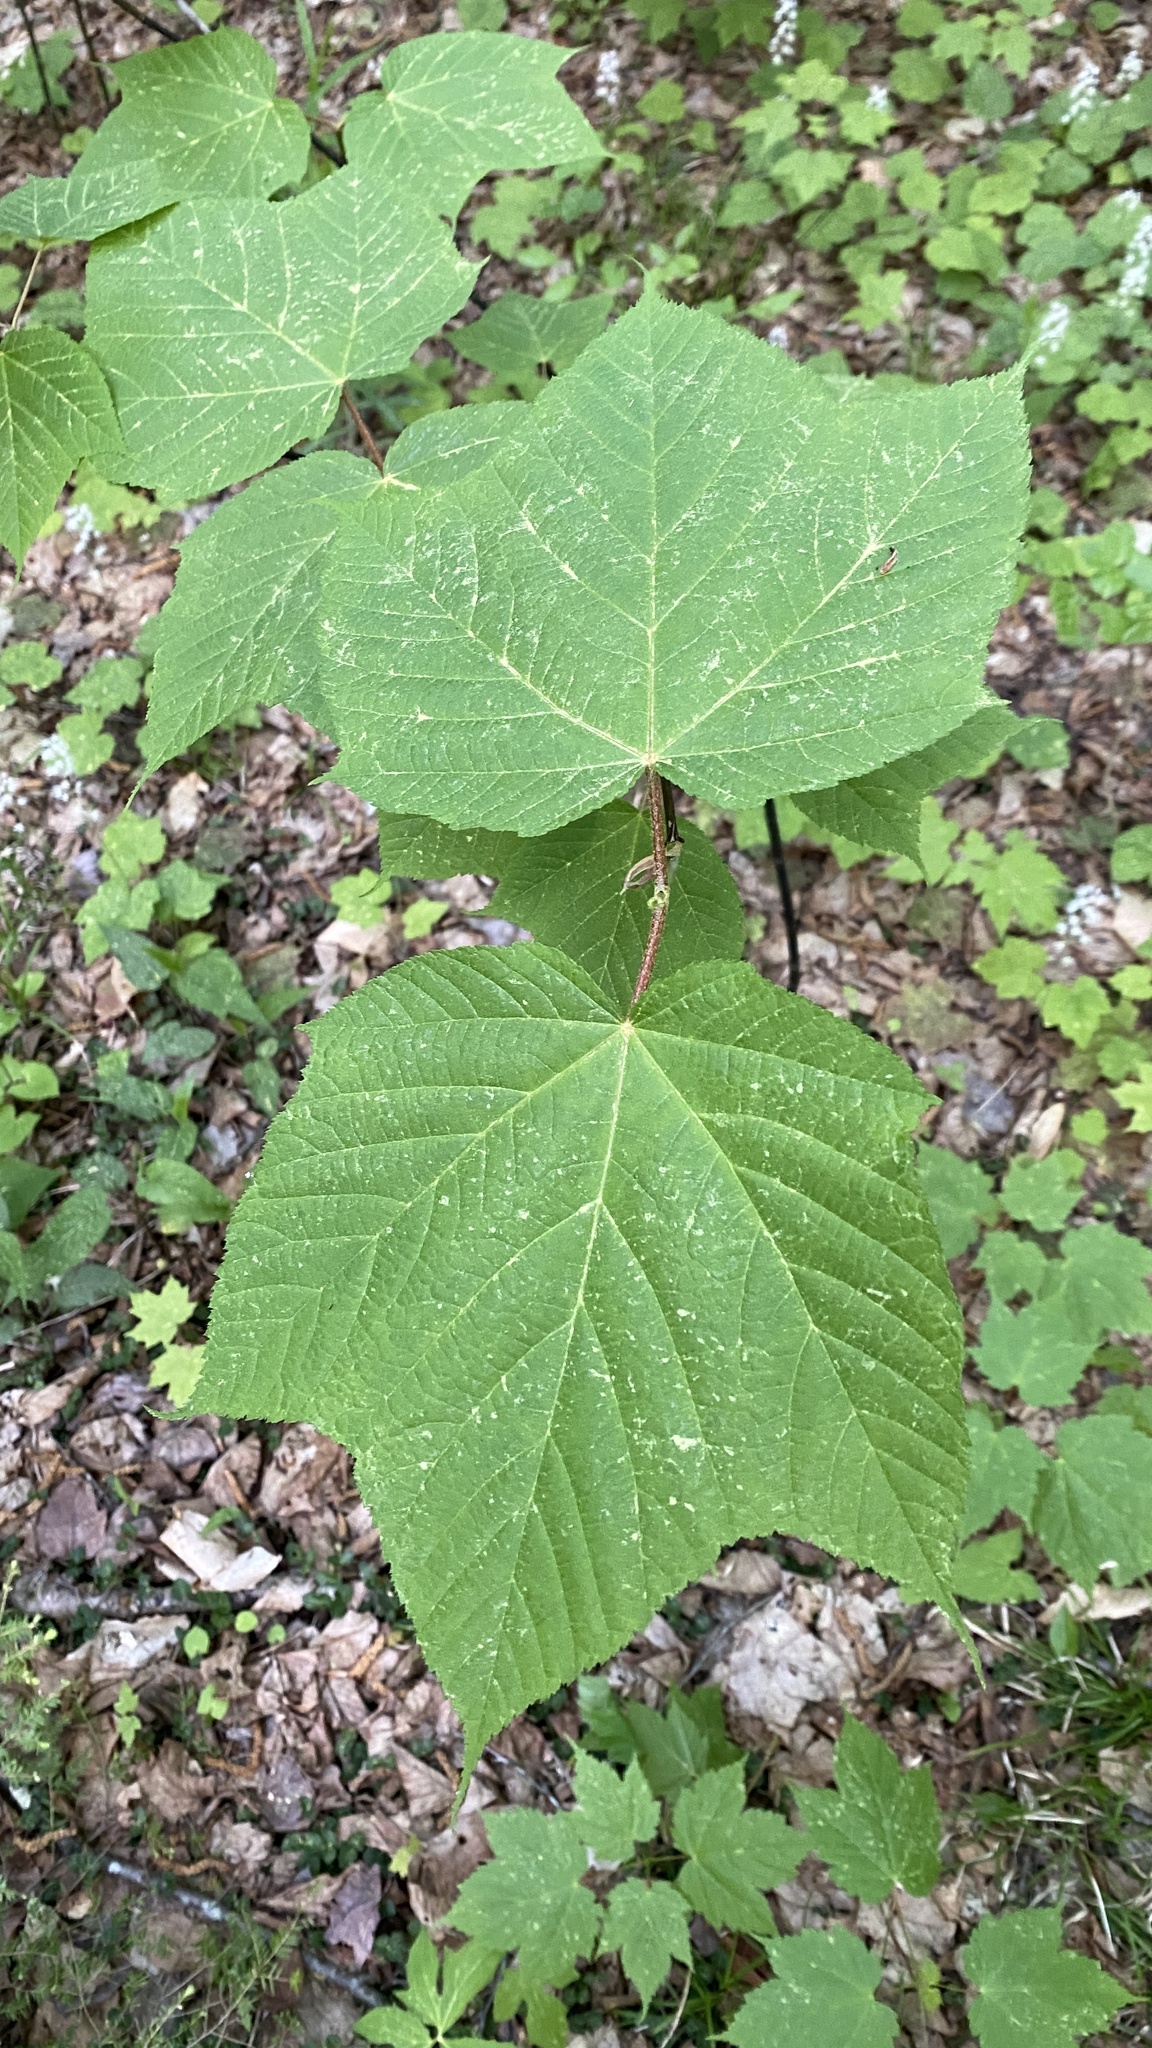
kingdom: Plantae
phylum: Tracheophyta
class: Magnoliopsida
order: Sapindales
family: Sapindaceae
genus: Acer
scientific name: Acer pensylvanicum
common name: Moosewood
